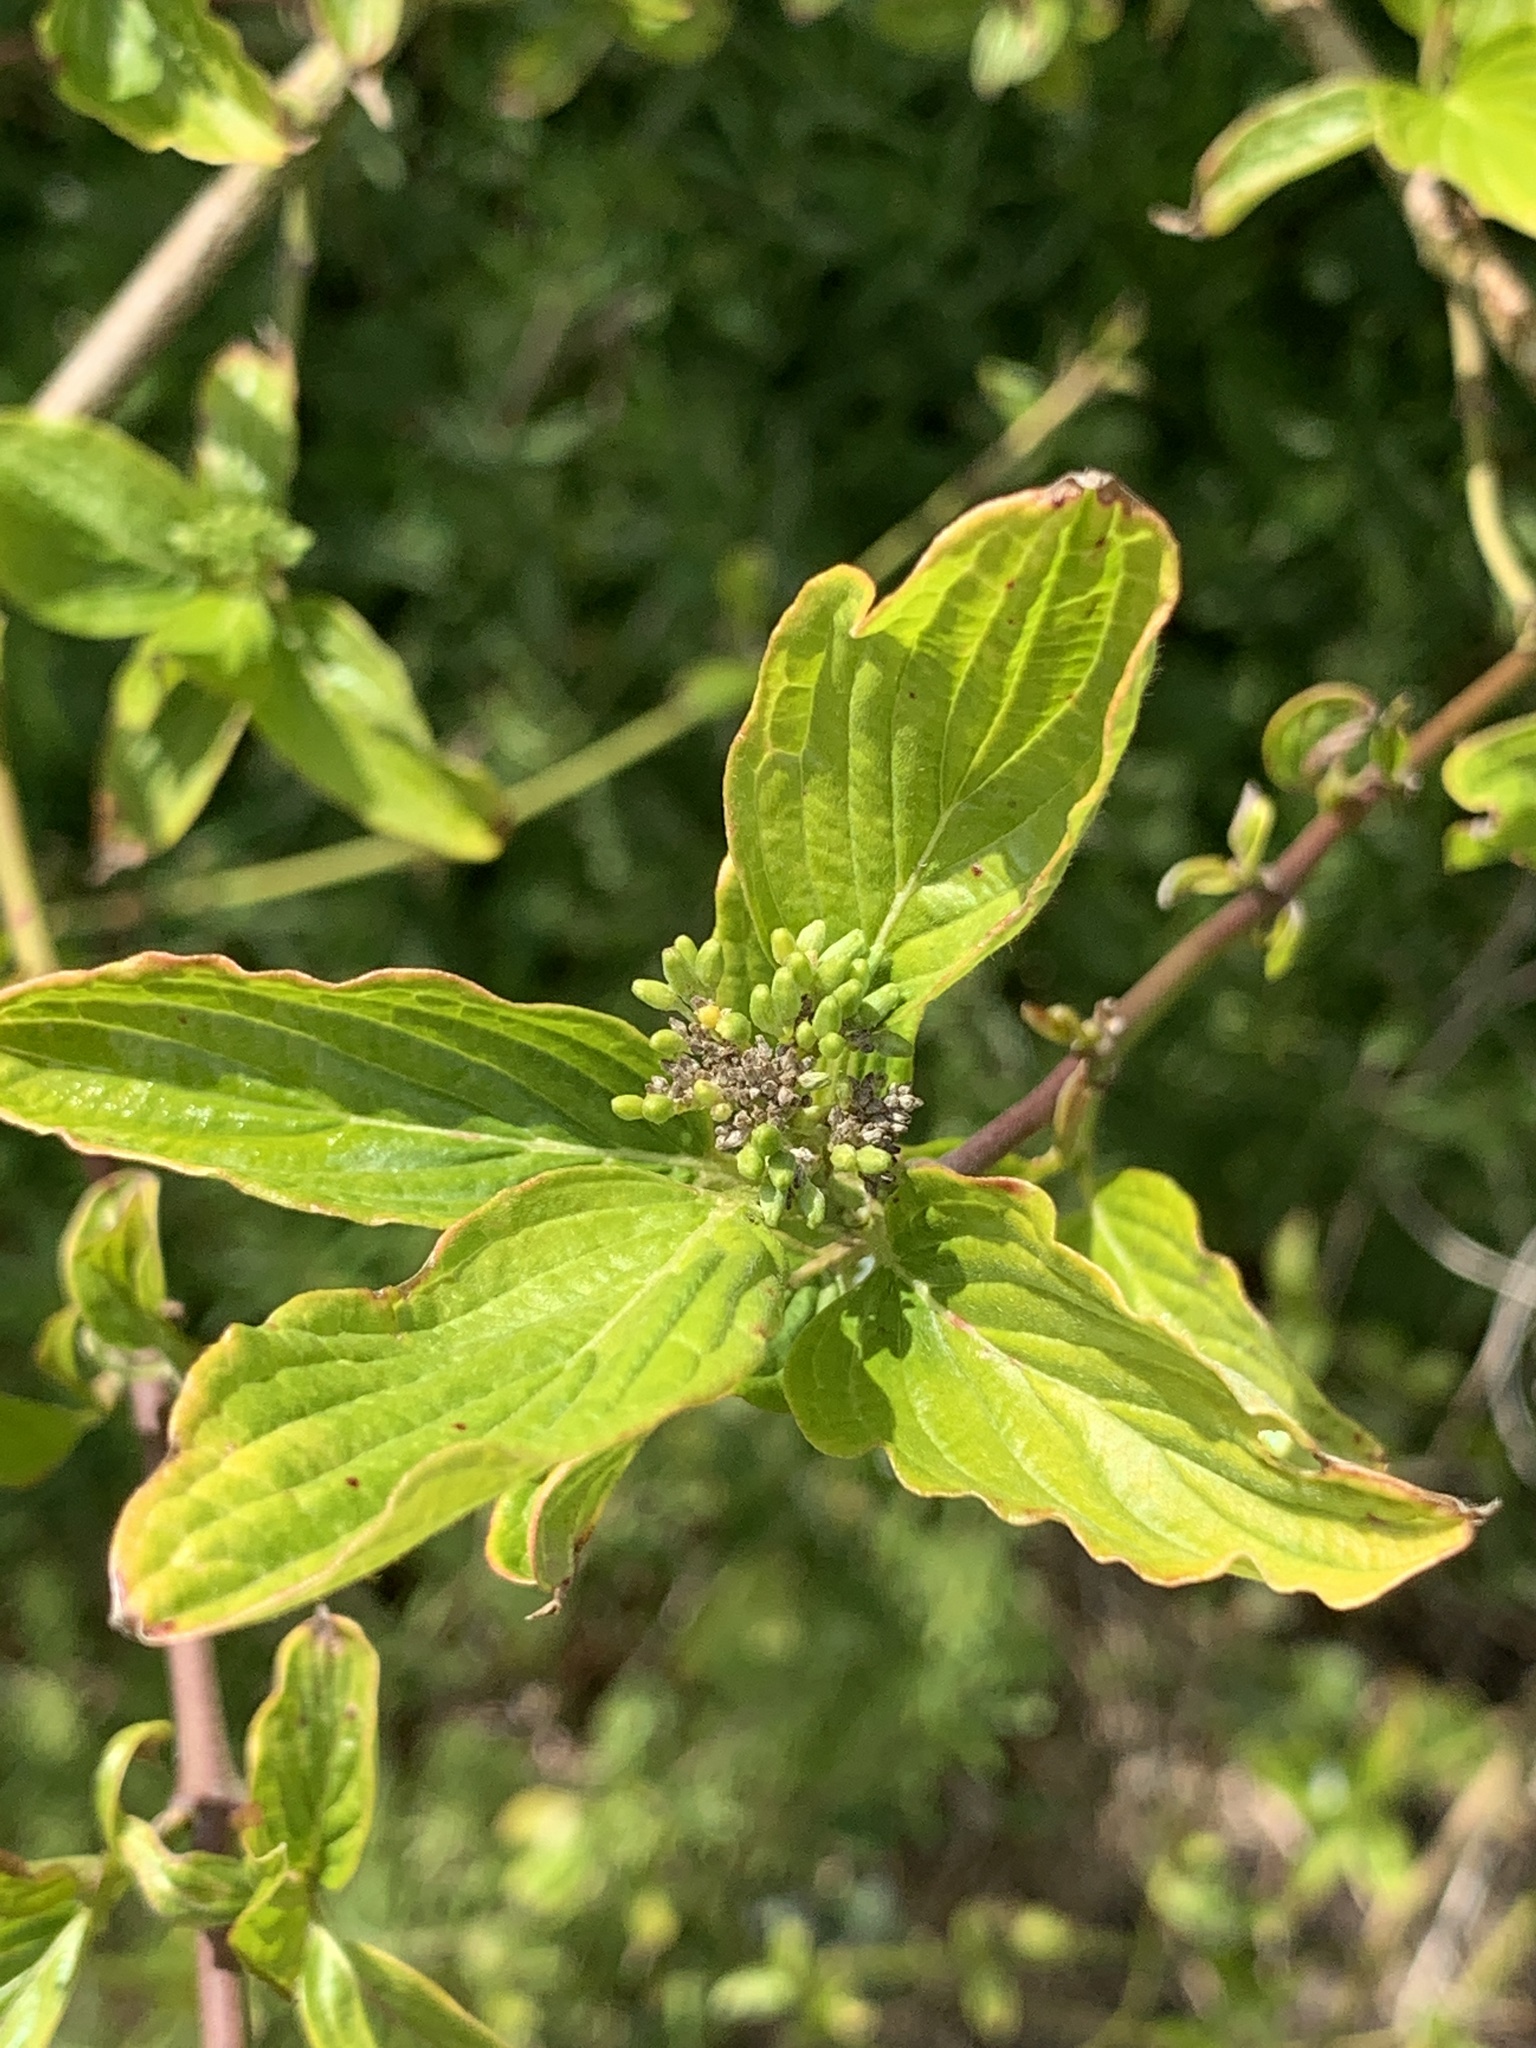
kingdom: Plantae
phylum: Tracheophyta
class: Magnoliopsida
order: Cornales
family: Cornaceae
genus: Cornus
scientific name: Cornus sanguinea
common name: Dogwood
